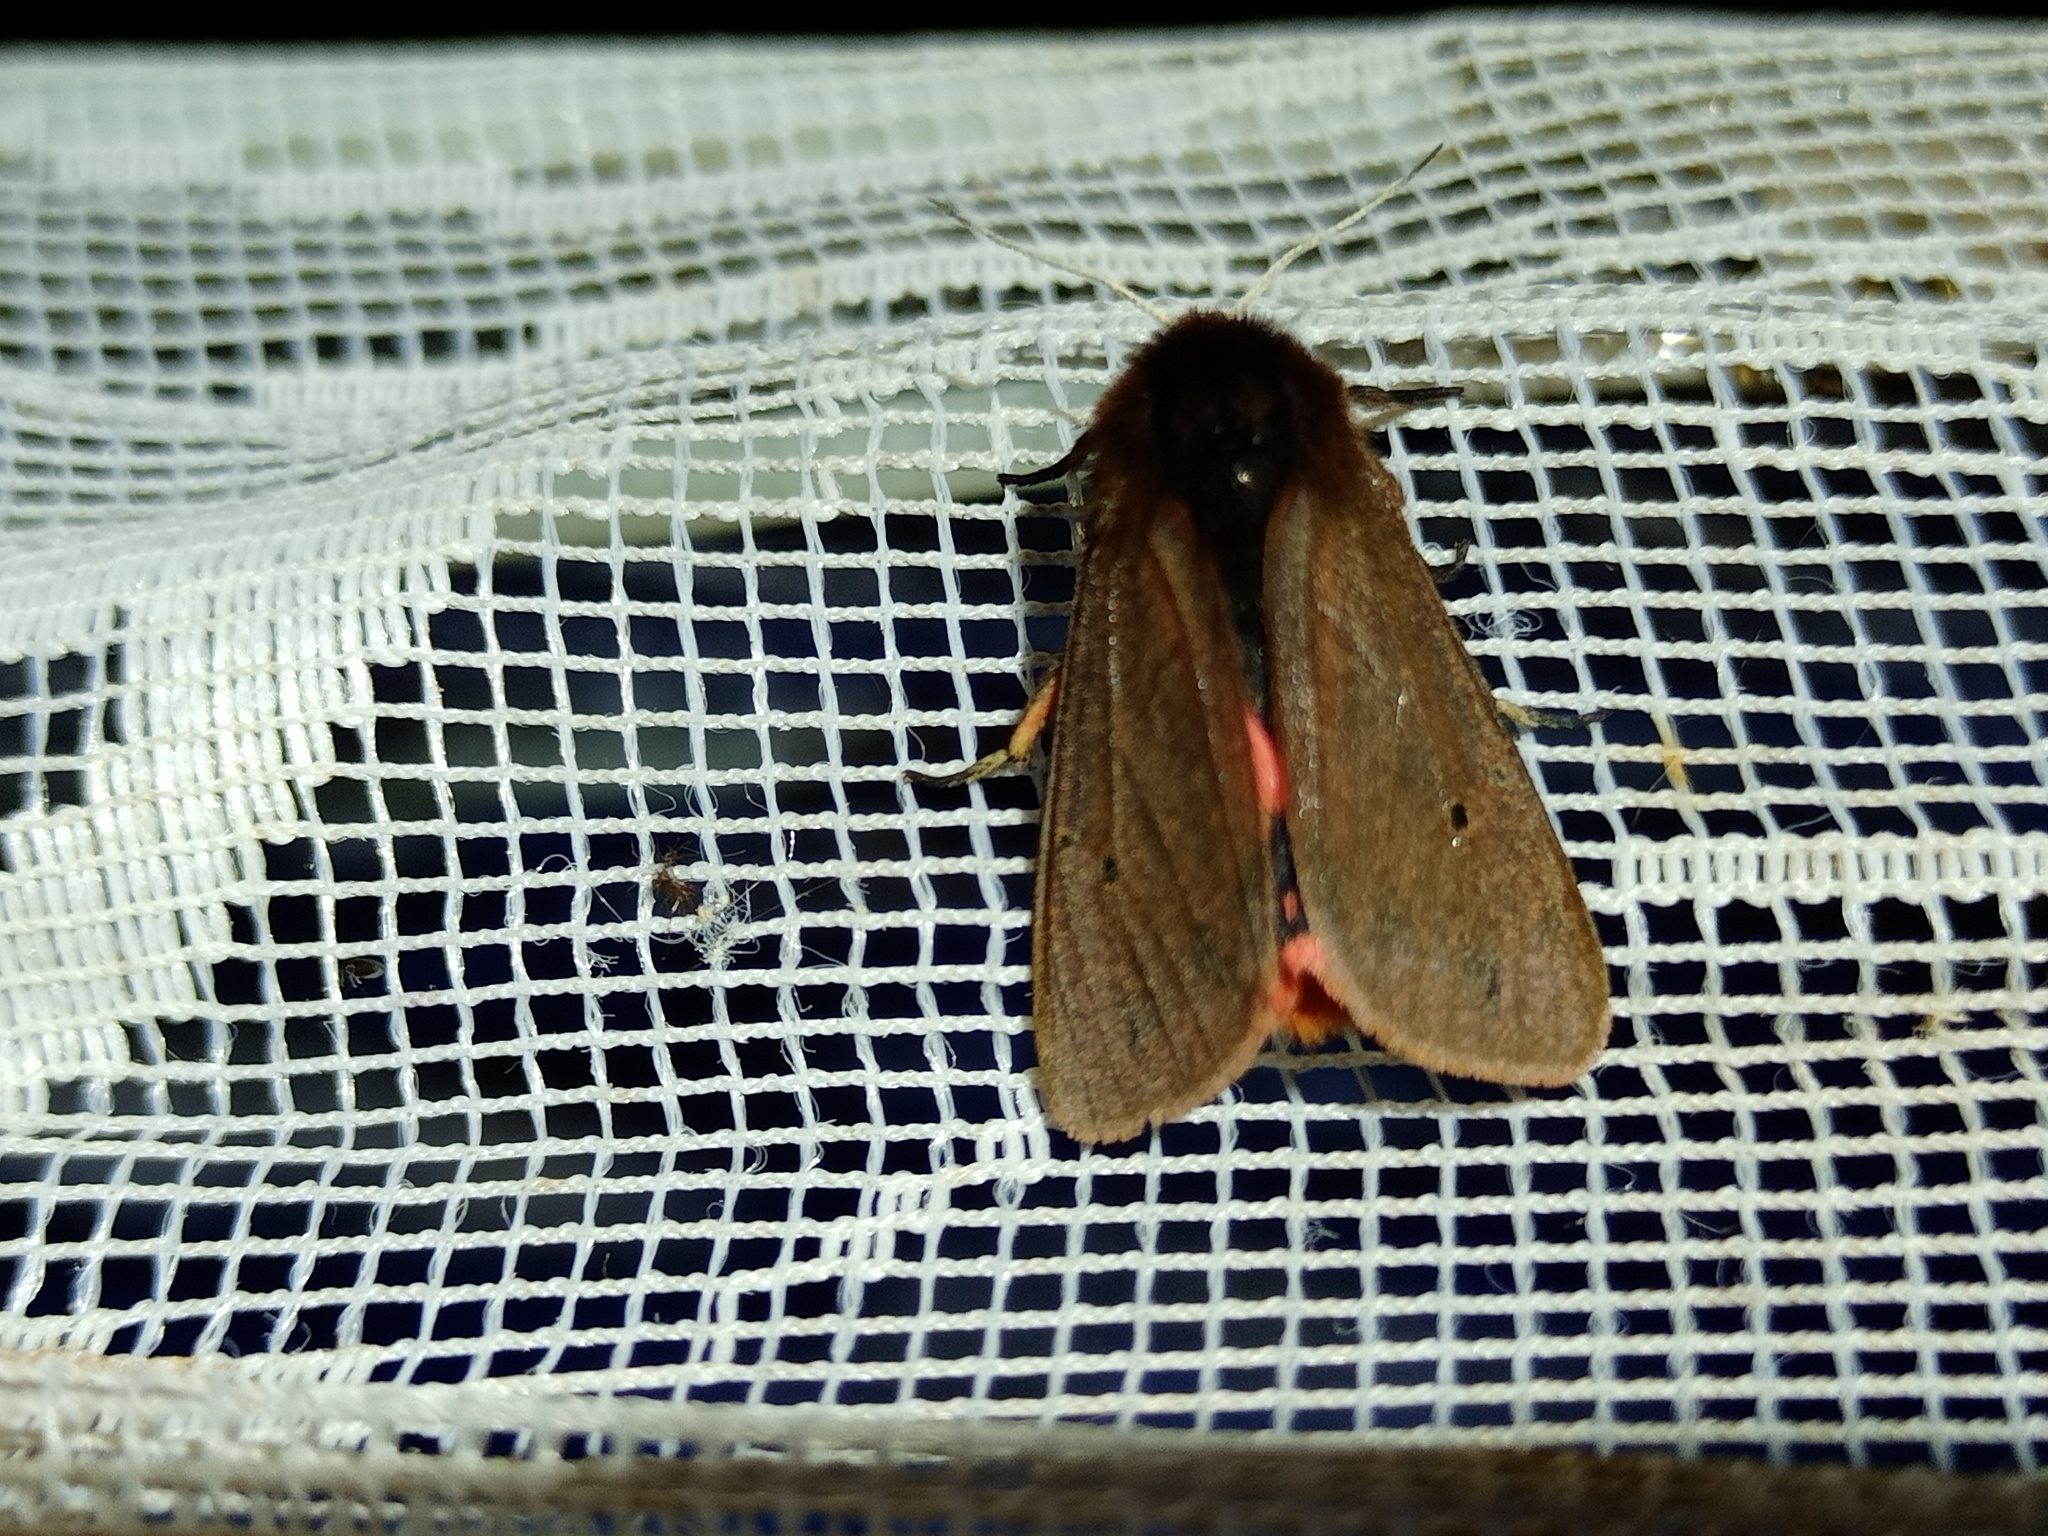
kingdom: Animalia
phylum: Arthropoda
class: Insecta
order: Lepidoptera
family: Erebidae
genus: Phragmatobia
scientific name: Phragmatobia fuliginosa
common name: Ruby tiger
